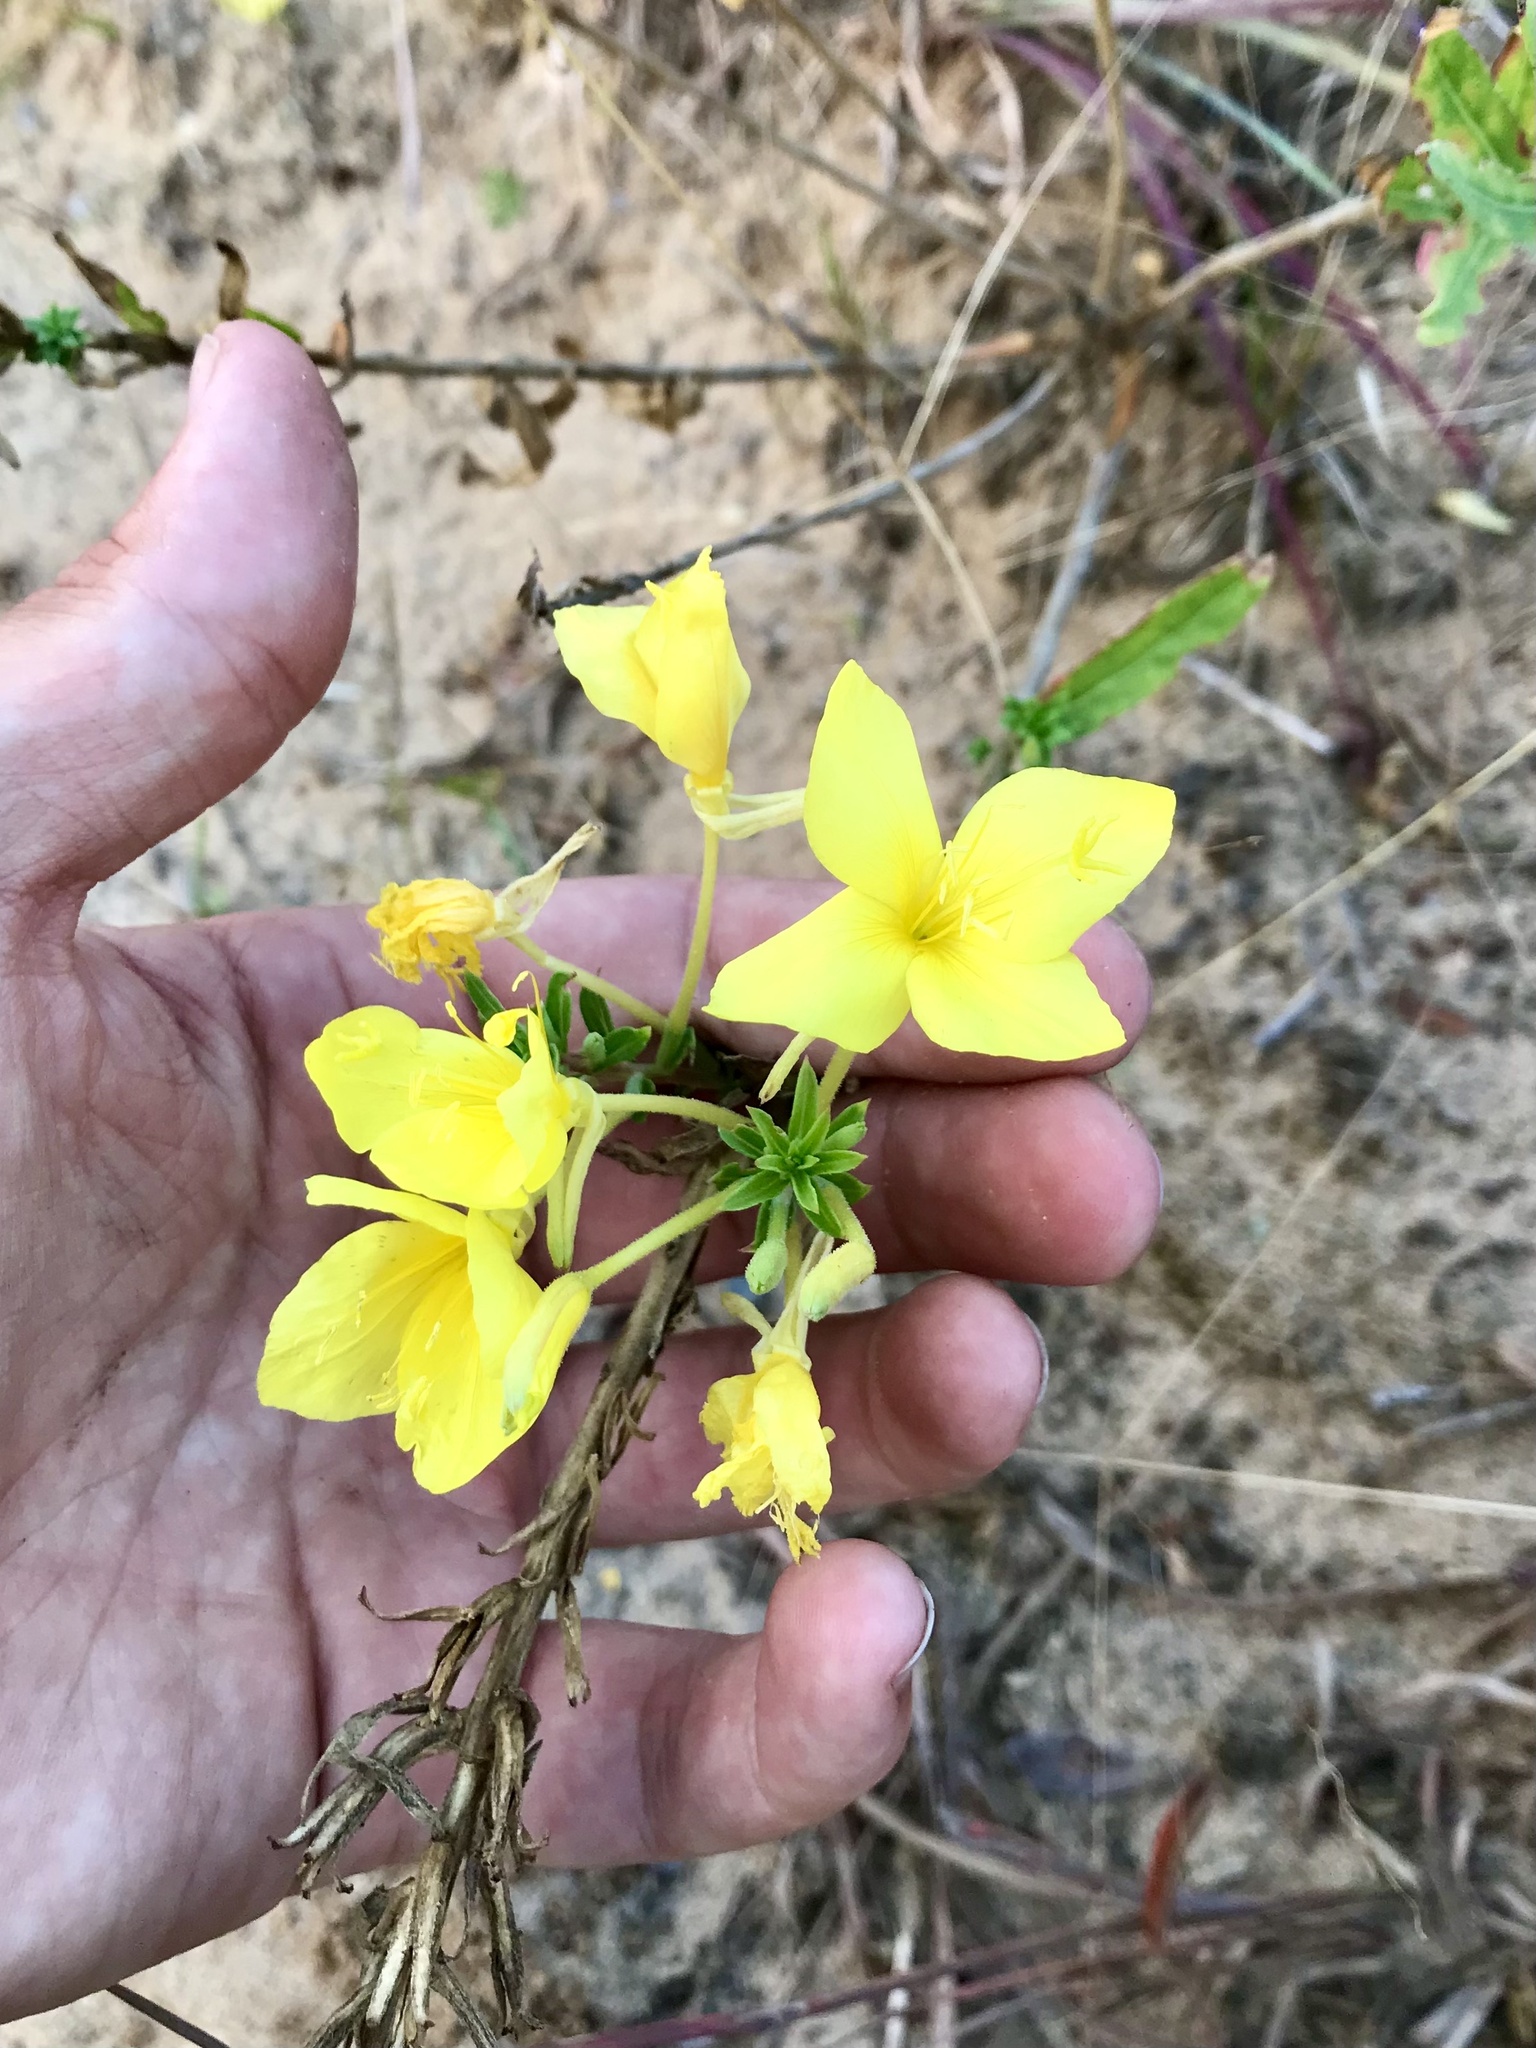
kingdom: Plantae
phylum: Tracheophyta
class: Magnoliopsida
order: Myrtales
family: Onagraceae
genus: Oenothera
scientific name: Oenothera rhombipetala
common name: Four-points evening-primrose
